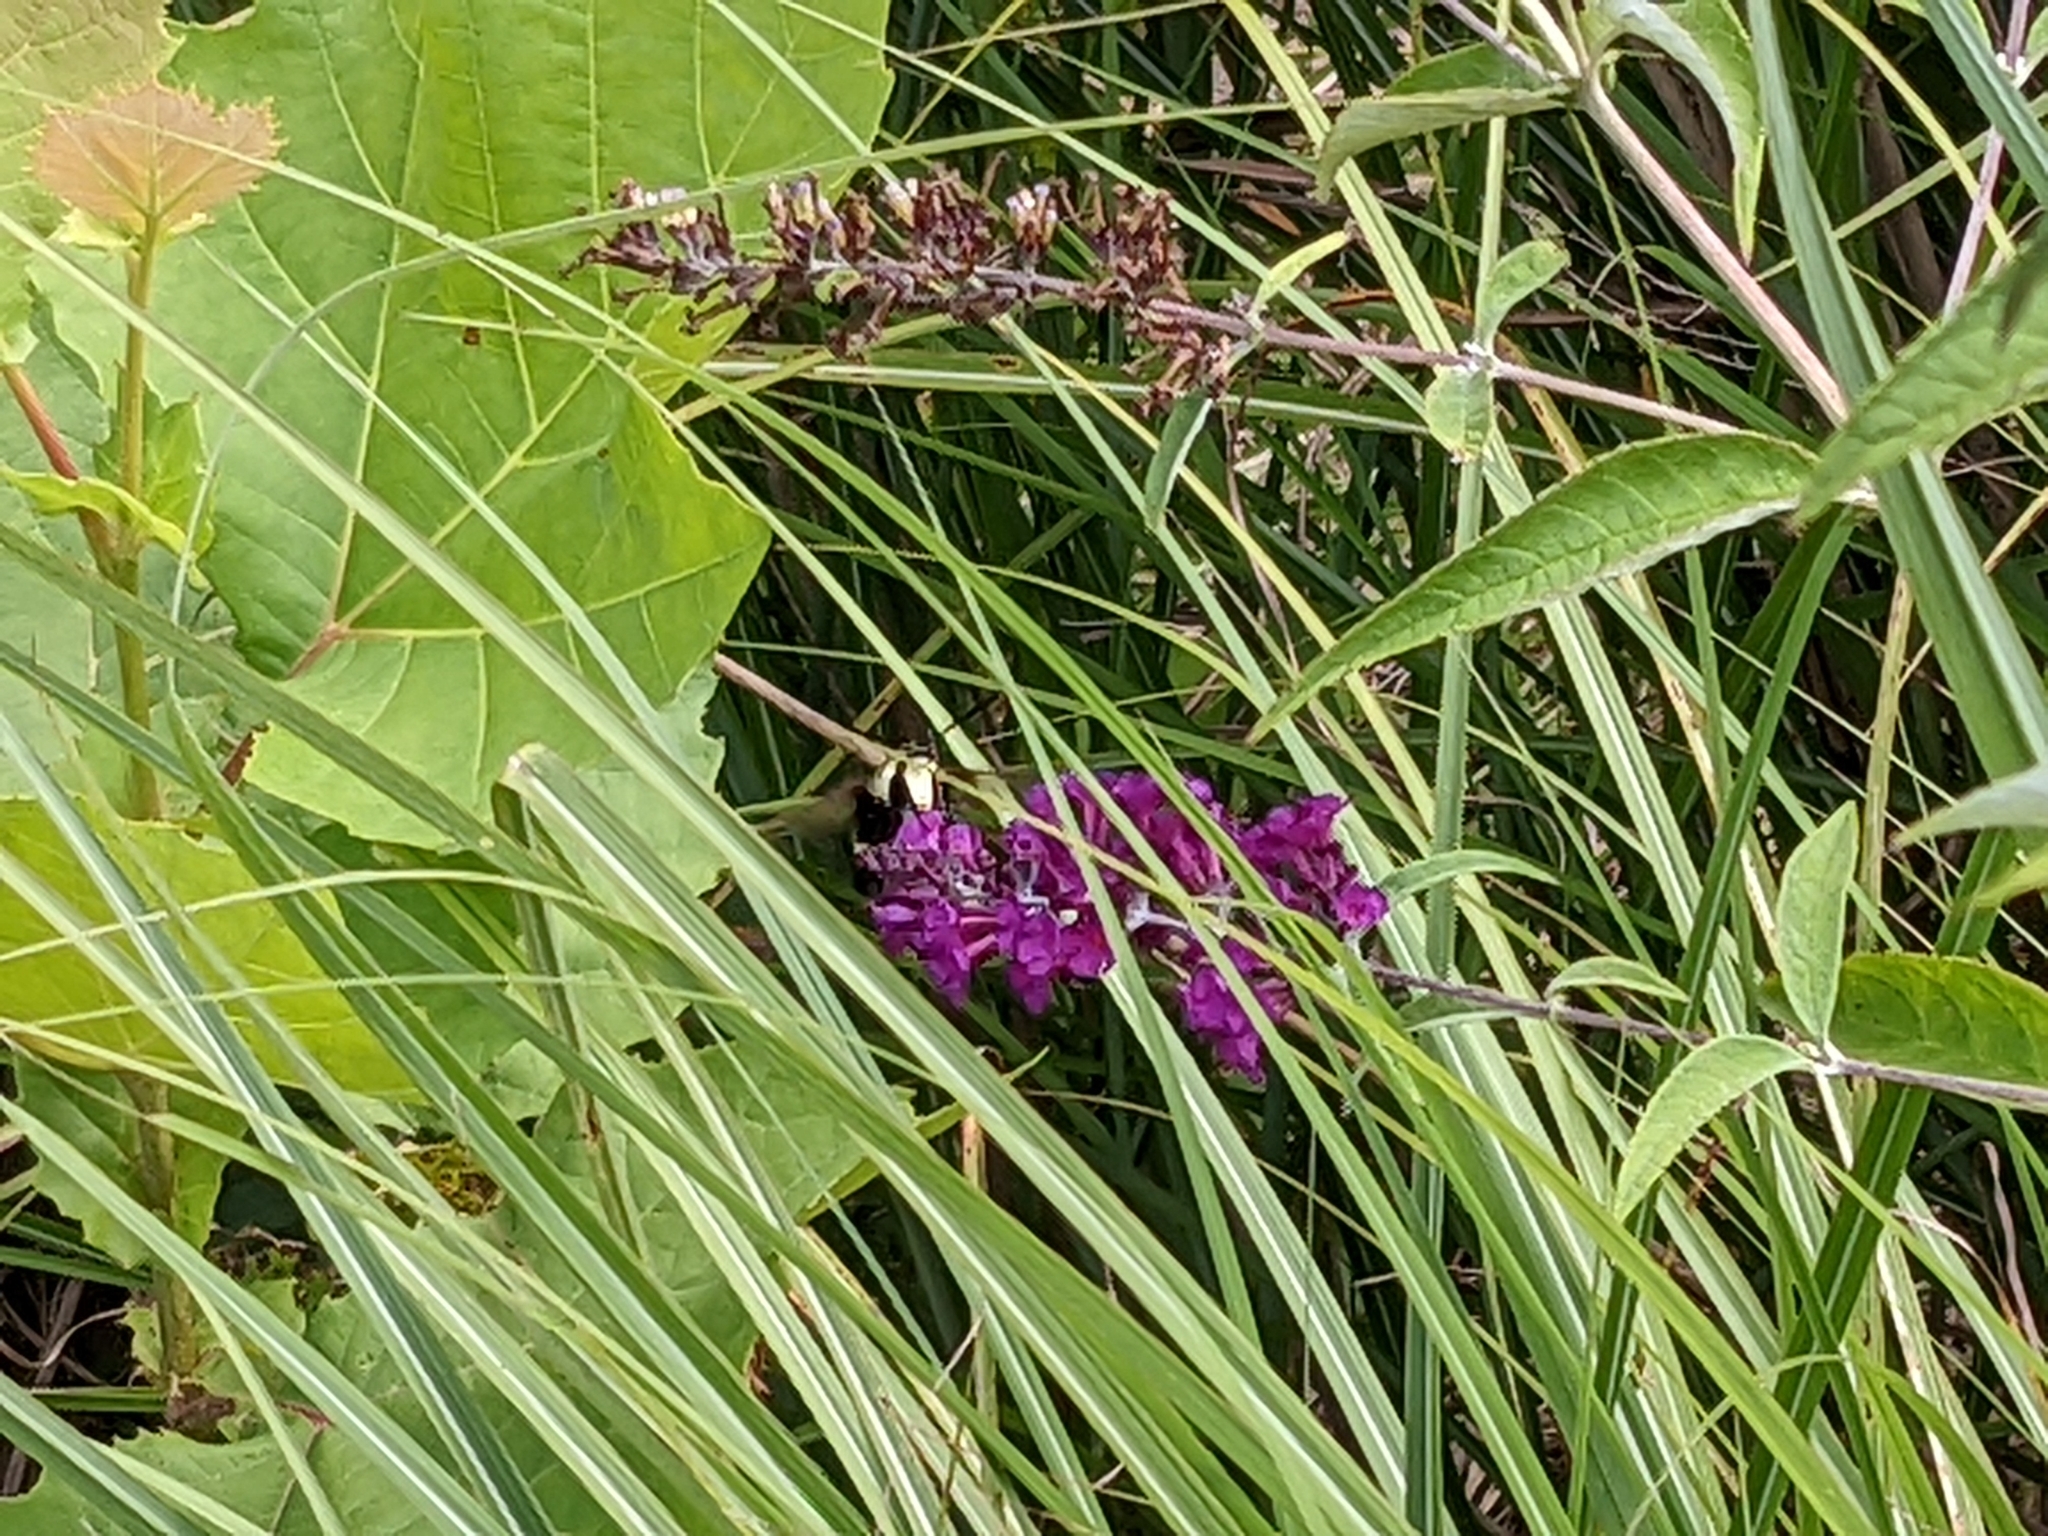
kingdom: Animalia
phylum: Arthropoda
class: Insecta
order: Lepidoptera
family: Sphingidae
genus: Hemaris
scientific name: Hemaris diffinis
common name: Bumblebee moth
